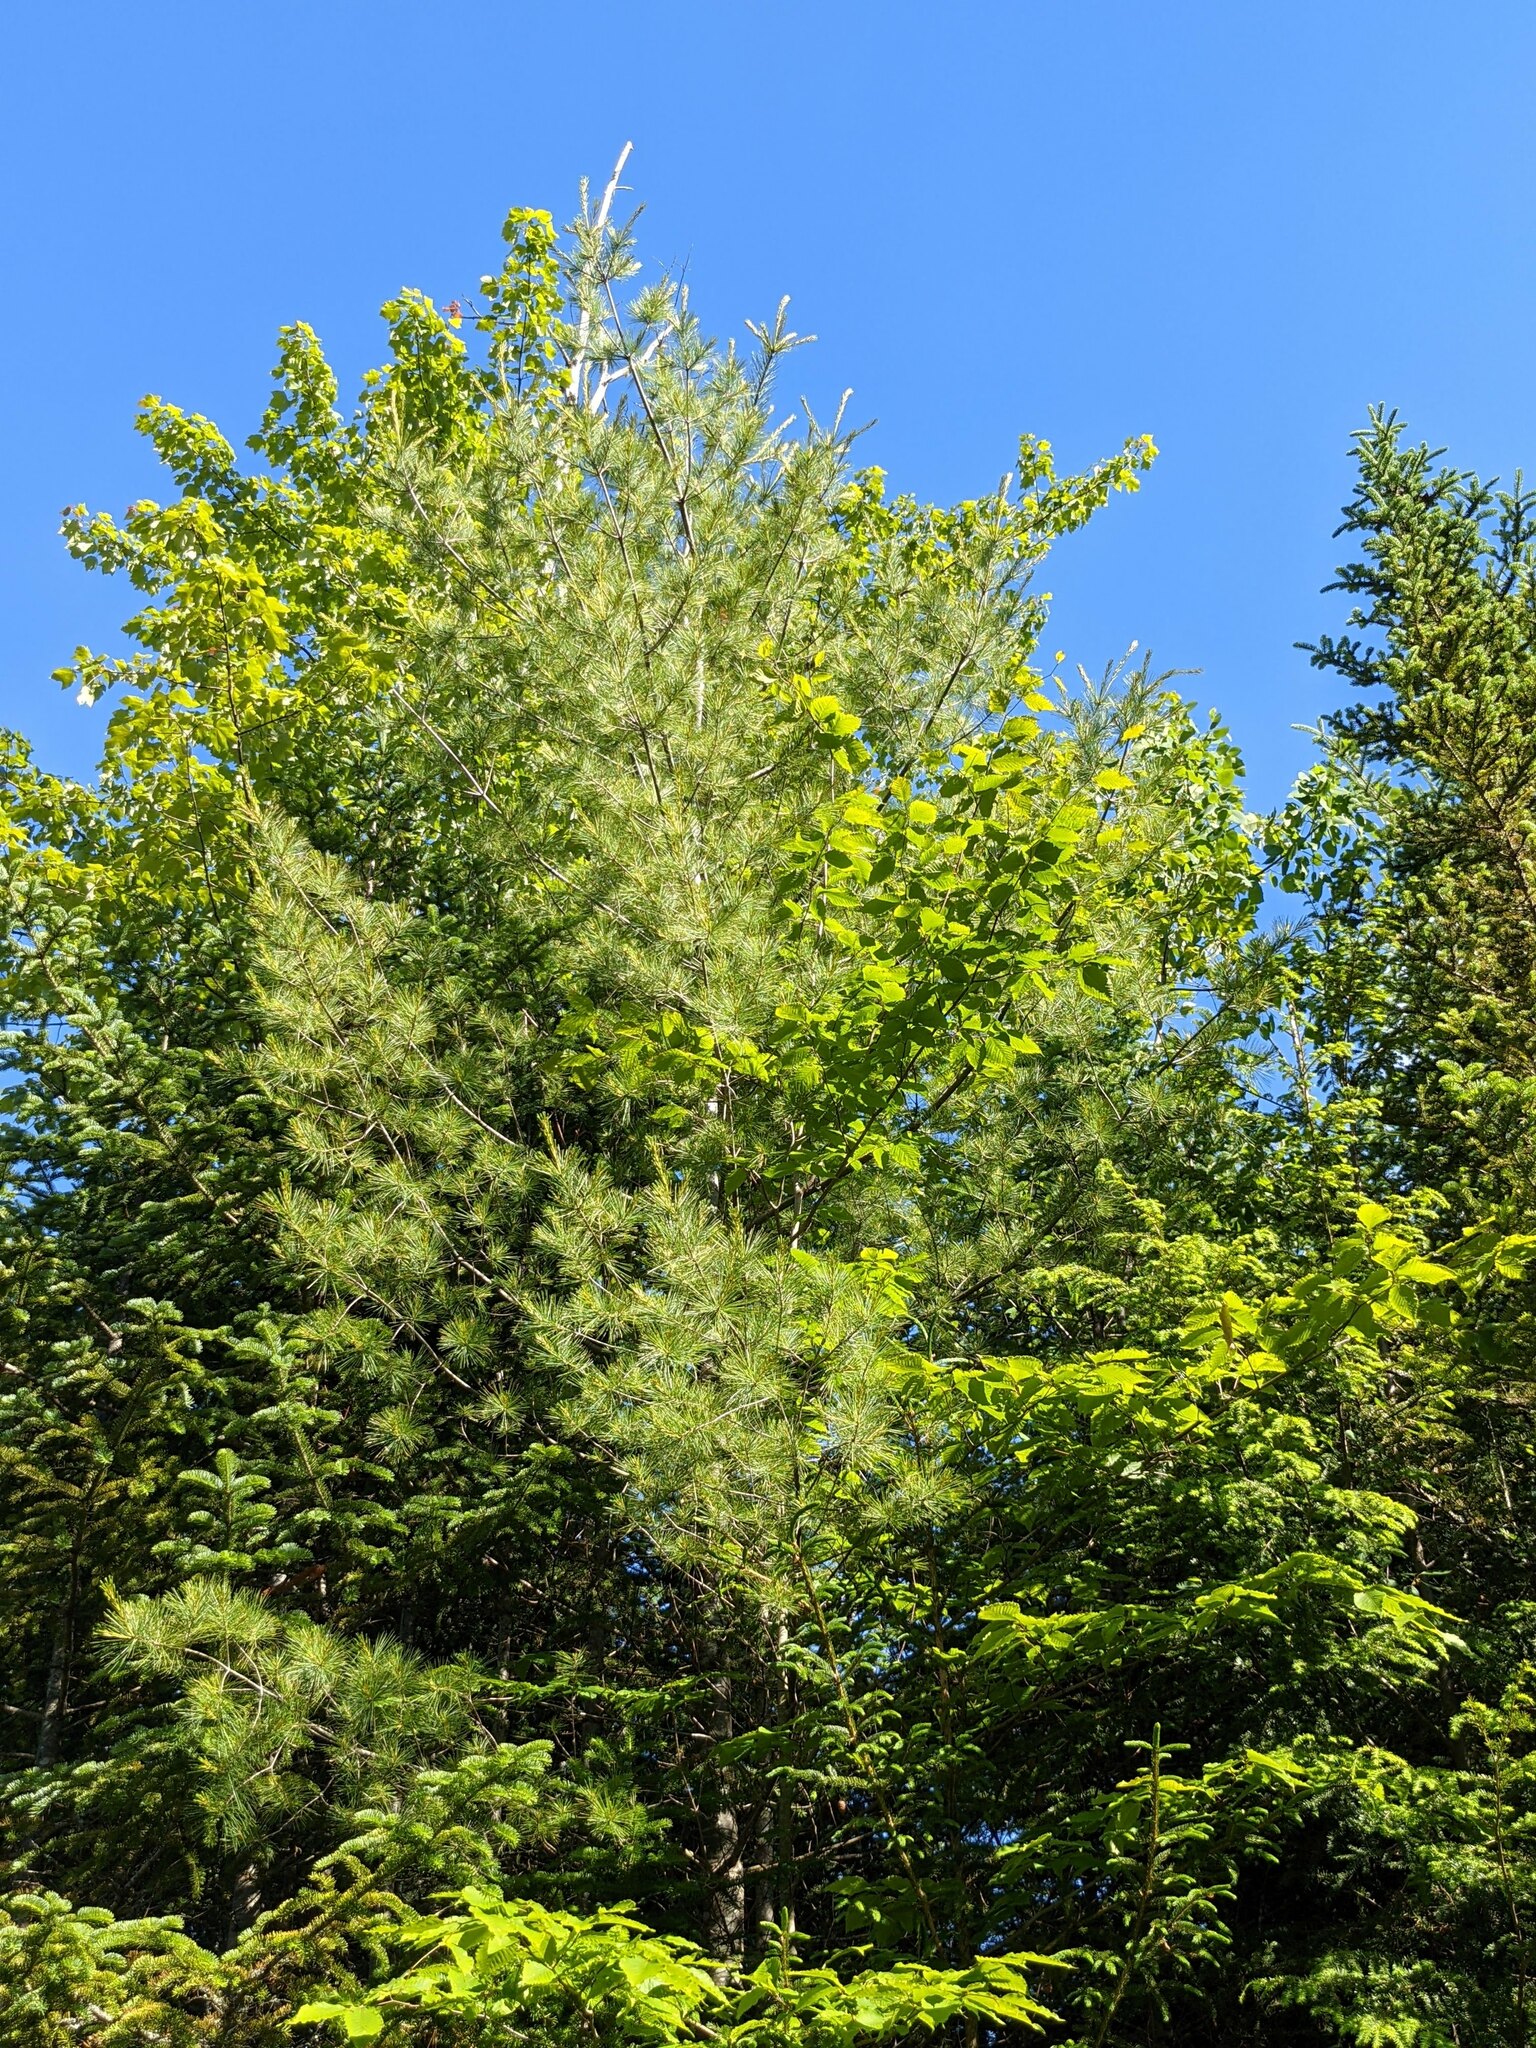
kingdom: Plantae
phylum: Tracheophyta
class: Pinopsida
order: Pinales
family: Pinaceae
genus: Pinus
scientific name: Pinus strobus
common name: Weymouth pine
